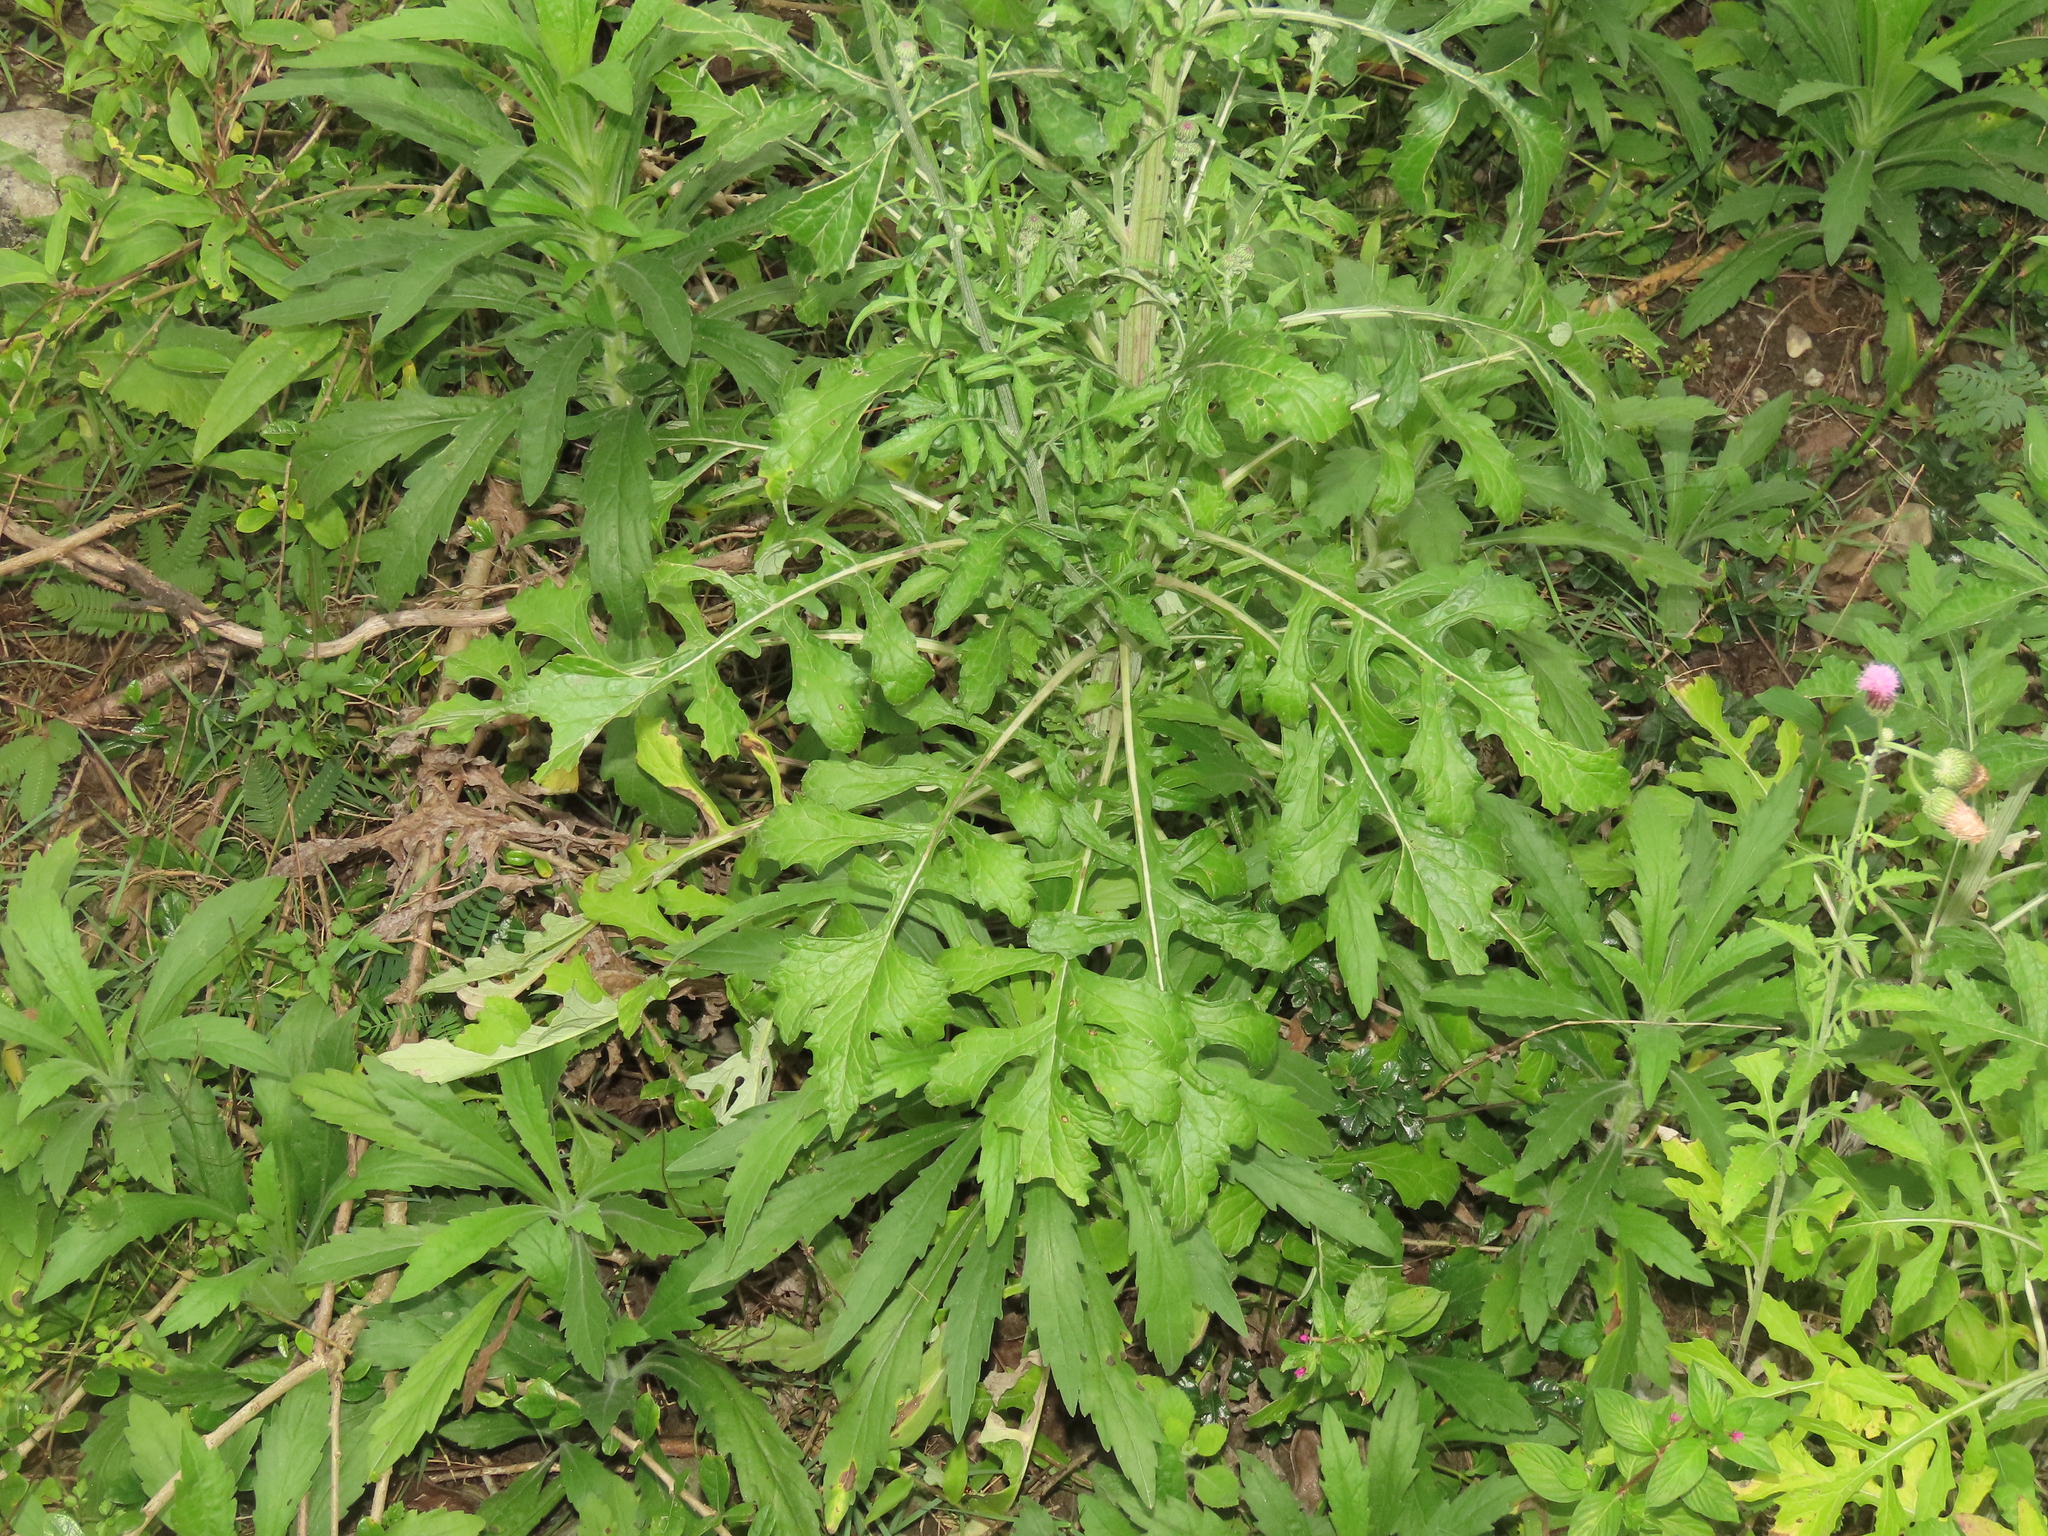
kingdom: Plantae
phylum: Tracheophyta
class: Magnoliopsida
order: Asterales
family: Asteraceae
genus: Saussurea
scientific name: Saussurea lyrata
